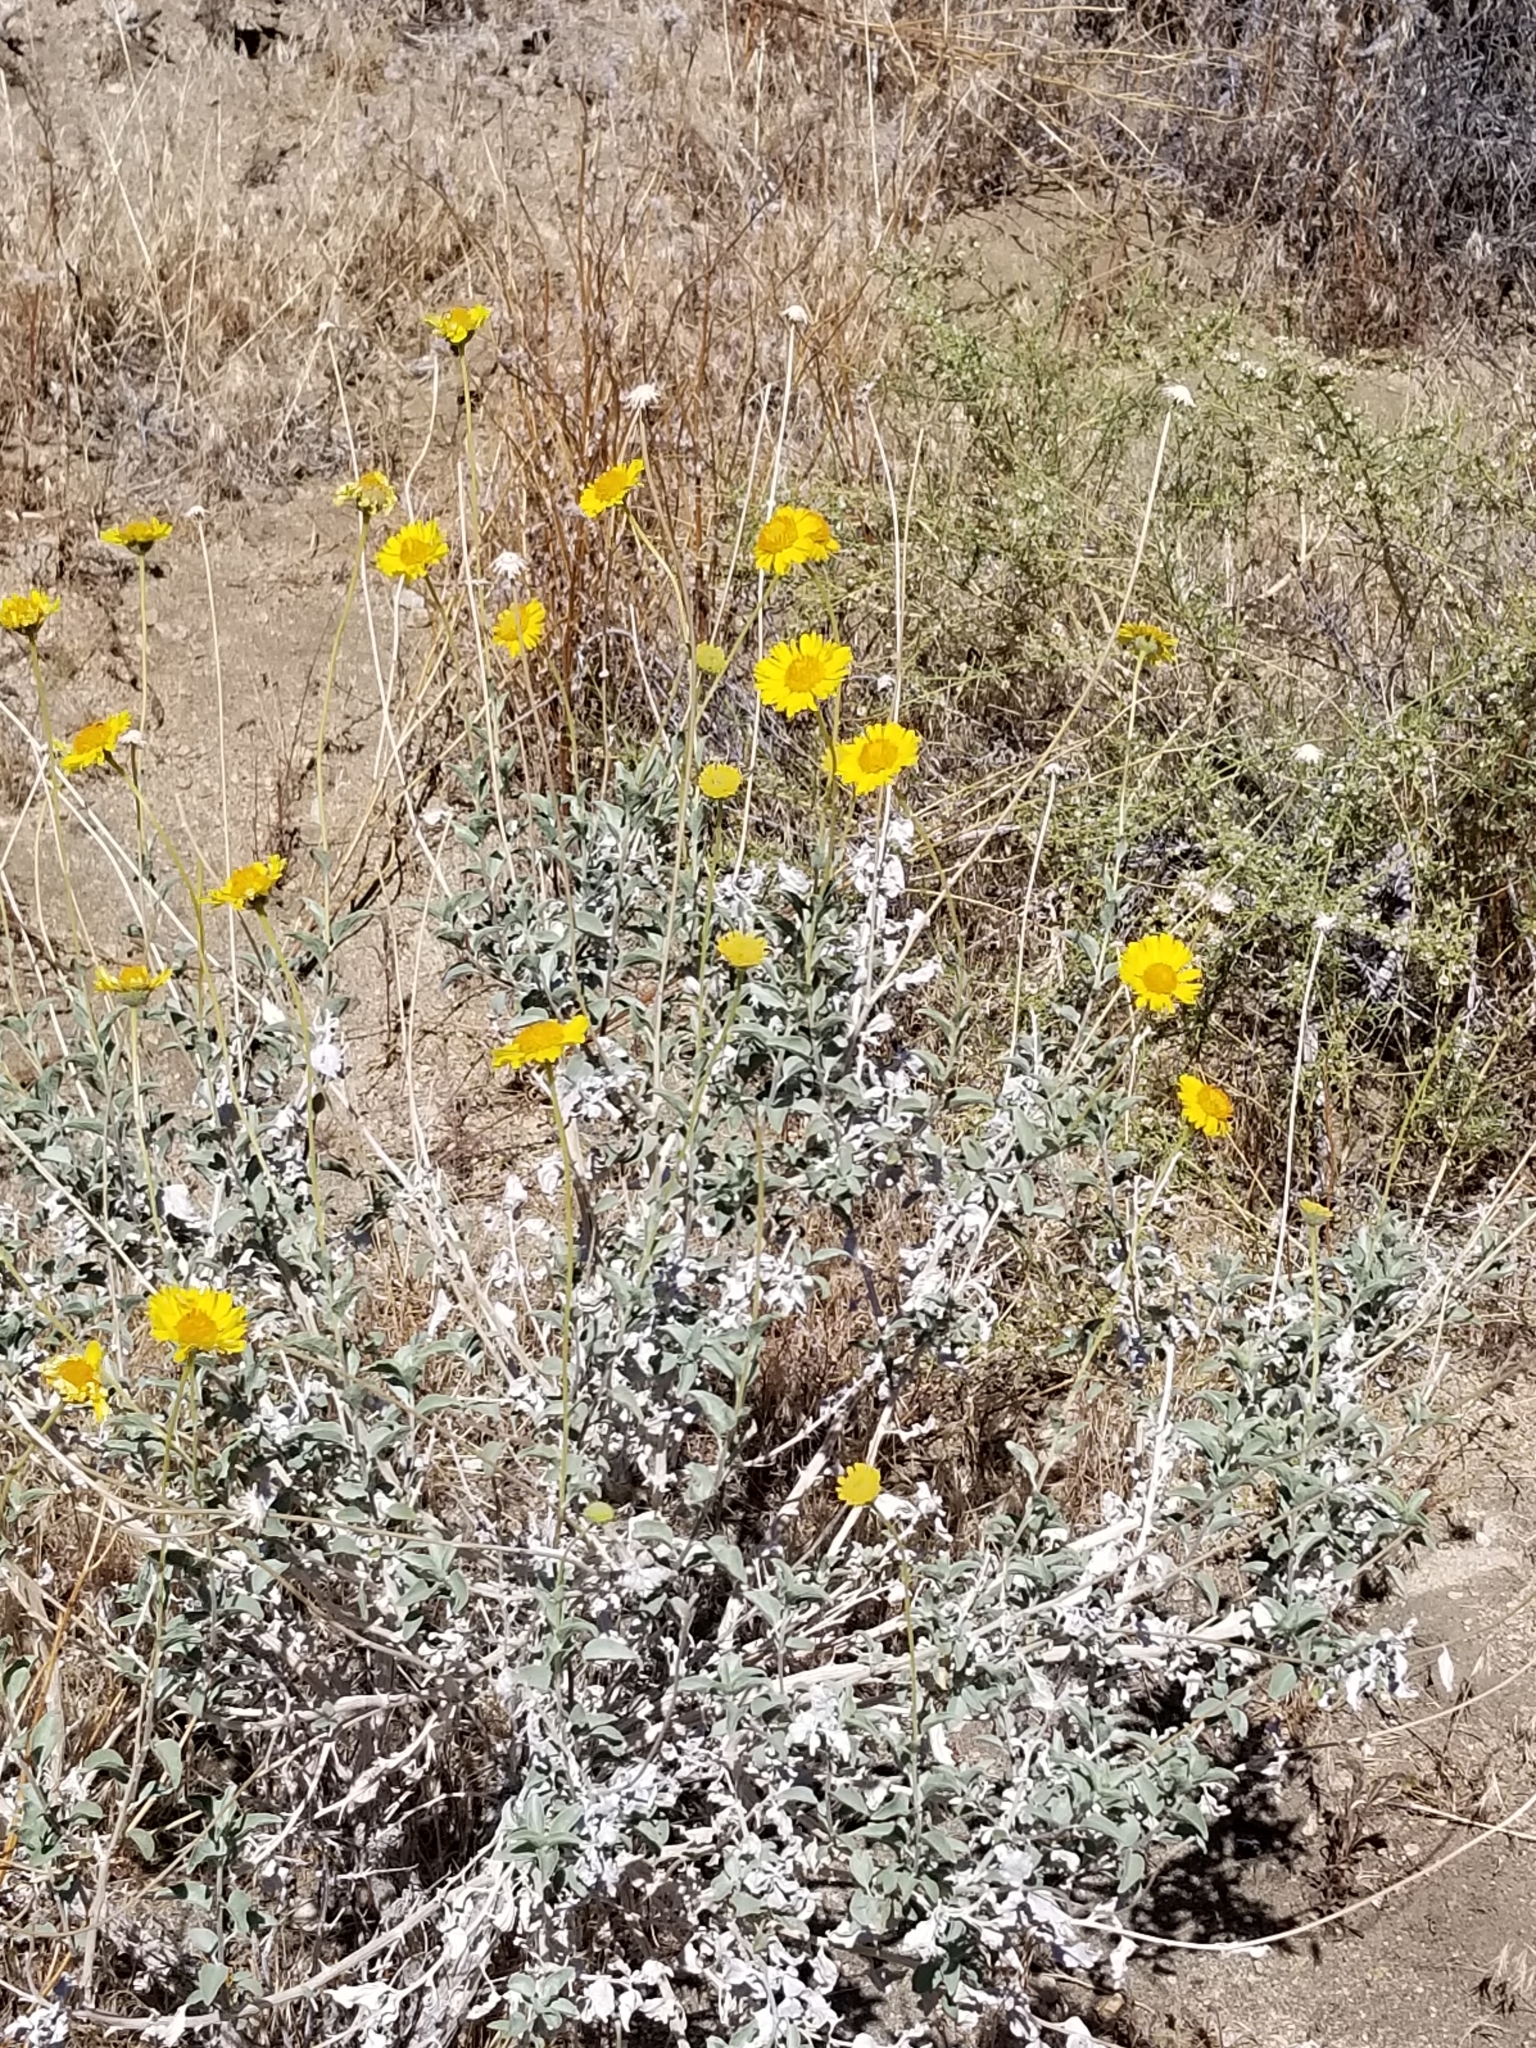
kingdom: Plantae
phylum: Tracheophyta
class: Magnoliopsida
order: Asterales
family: Asteraceae
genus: Encelia
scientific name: Encelia actoni
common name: Acton encelia
